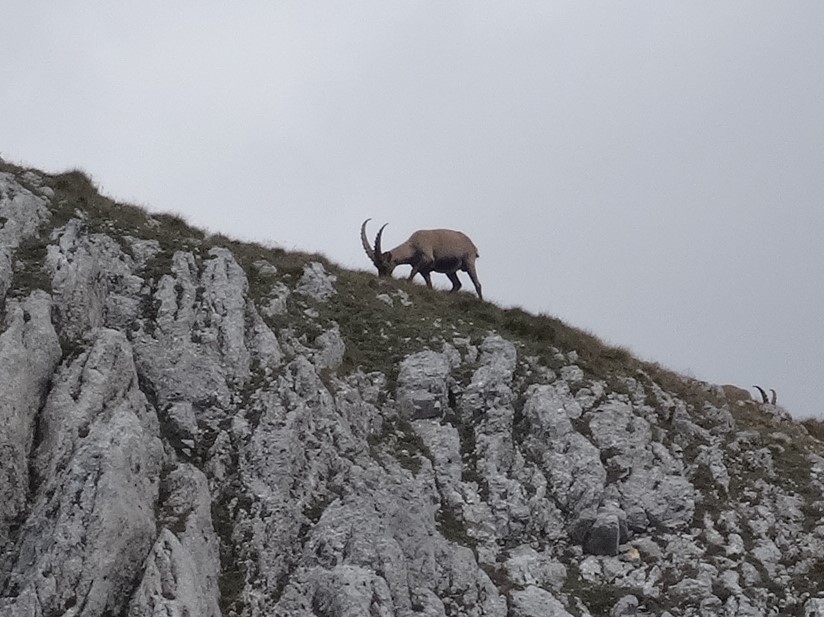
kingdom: Animalia
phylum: Chordata
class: Mammalia
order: Artiodactyla
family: Bovidae
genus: Capra
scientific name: Capra ibex
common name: Alpine ibex
